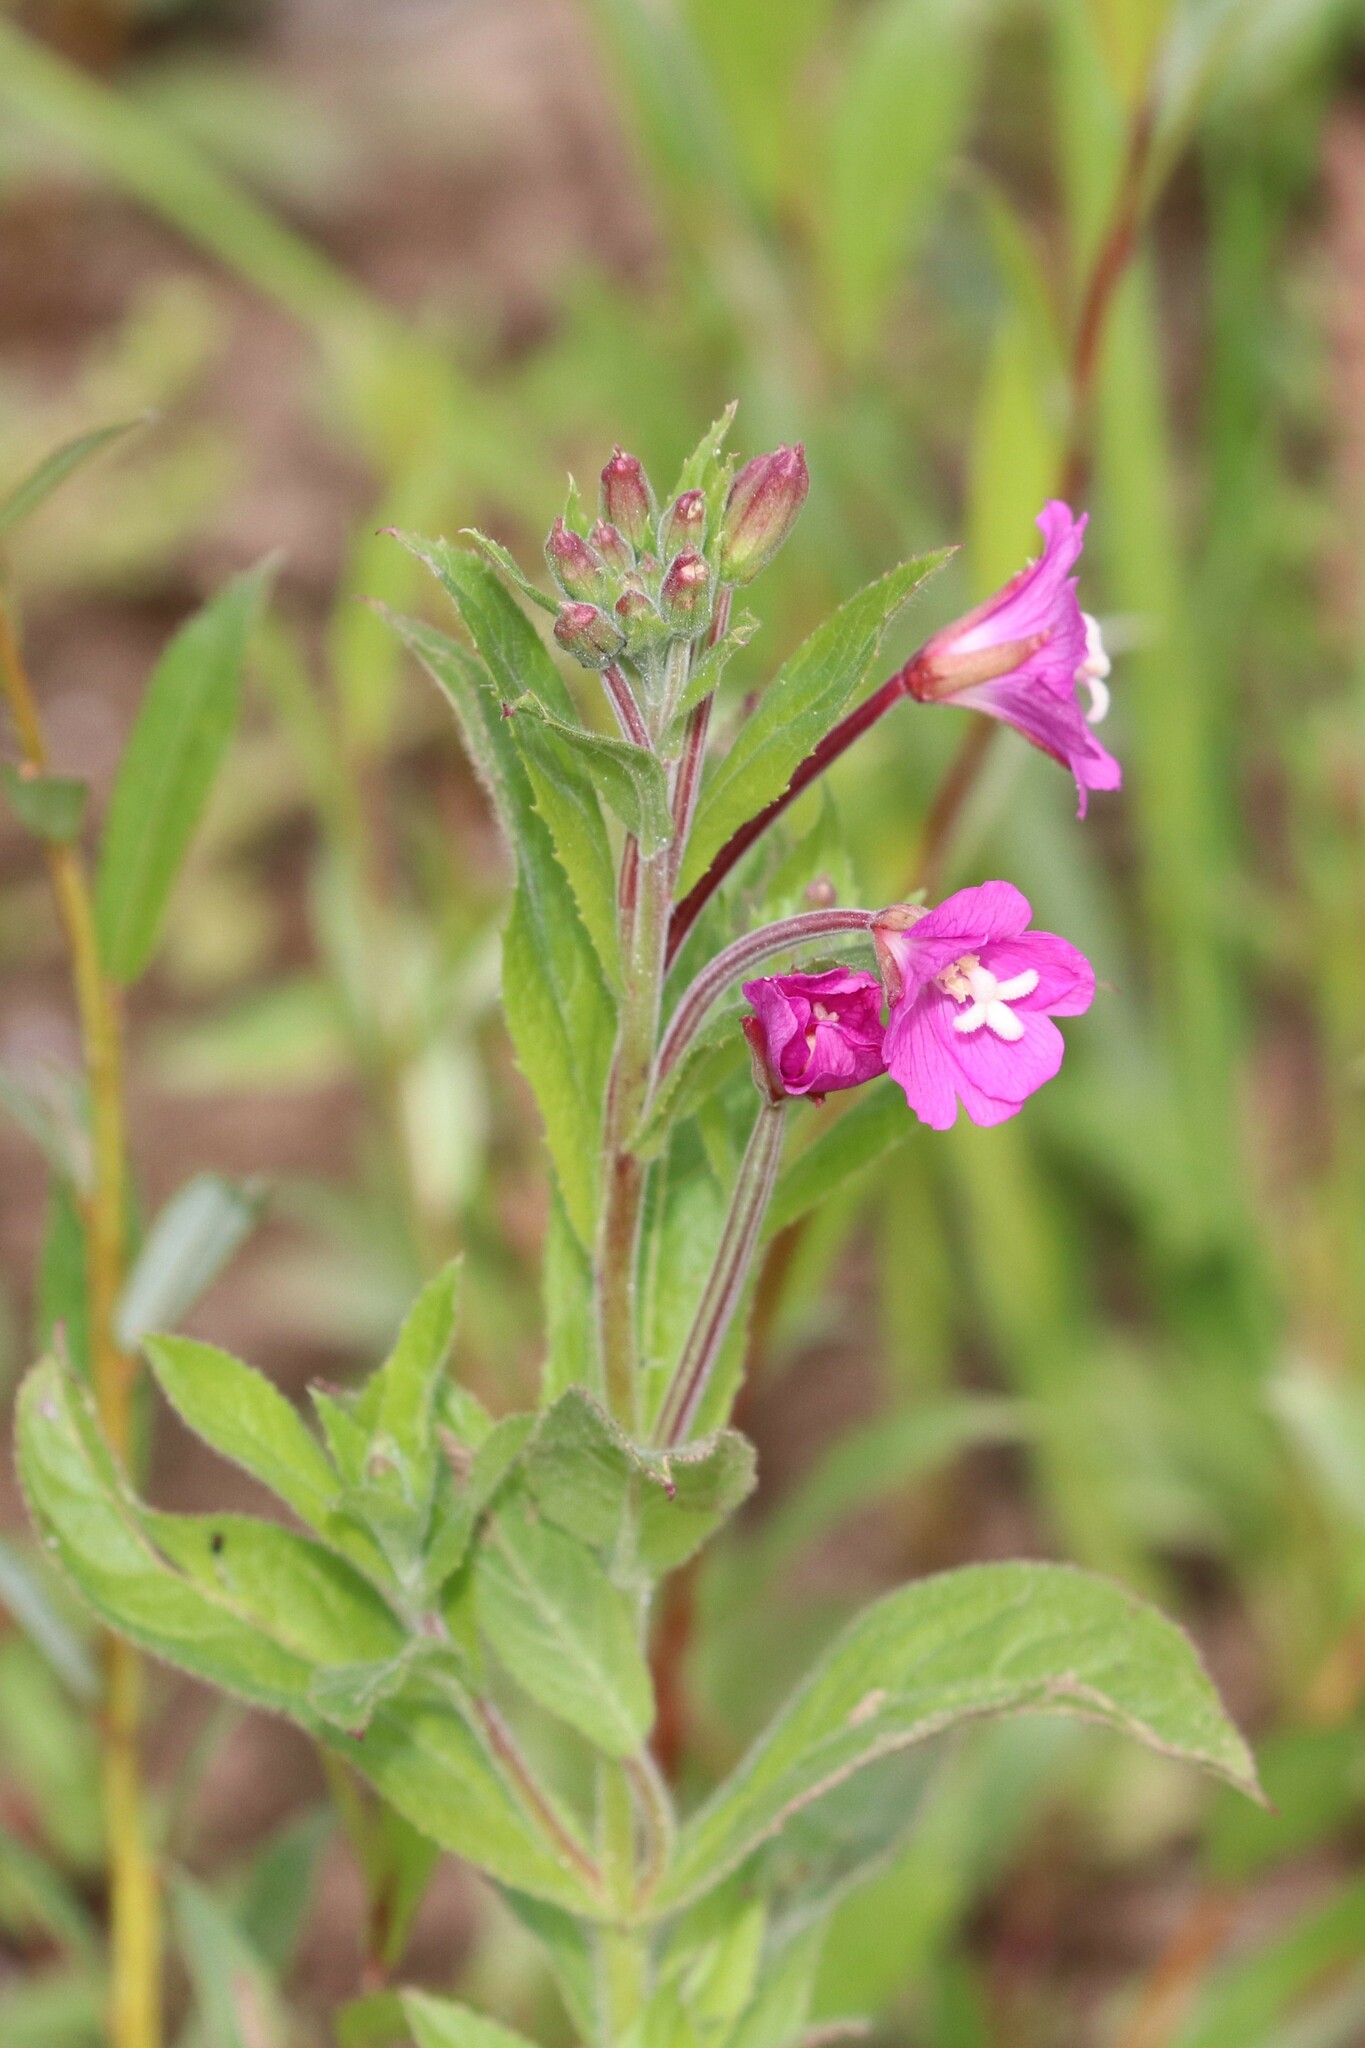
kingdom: Plantae
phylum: Tracheophyta
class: Magnoliopsida
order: Myrtales
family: Onagraceae
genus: Epilobium
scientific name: Epilobium hirsutum
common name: Great willowherb
